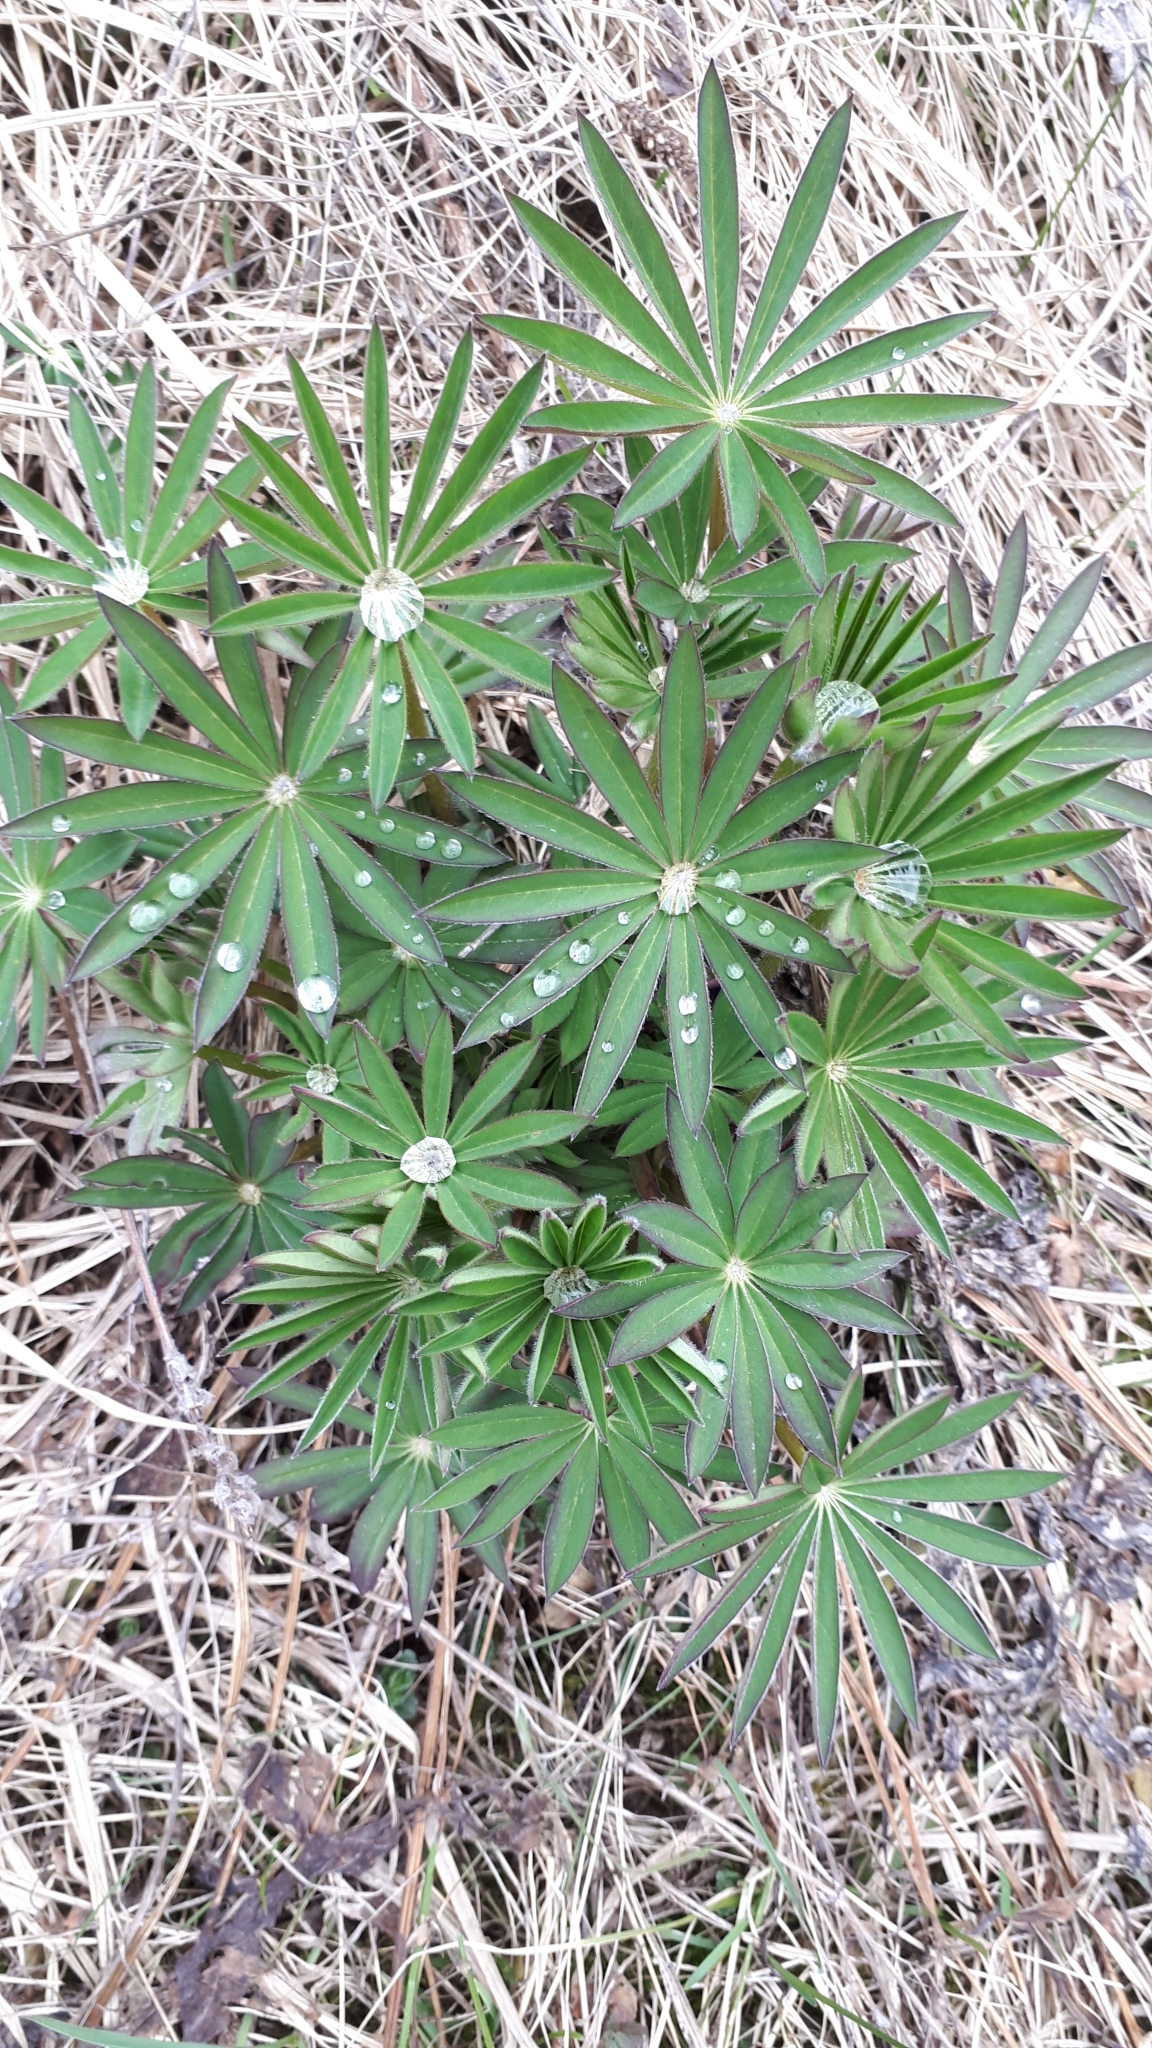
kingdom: Plantae
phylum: Tracheophyta
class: Magnoliopsida
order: Fabales
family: Fabaceae
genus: Lupinus
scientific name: Lupinus polyphyllus
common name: Garden lupin
